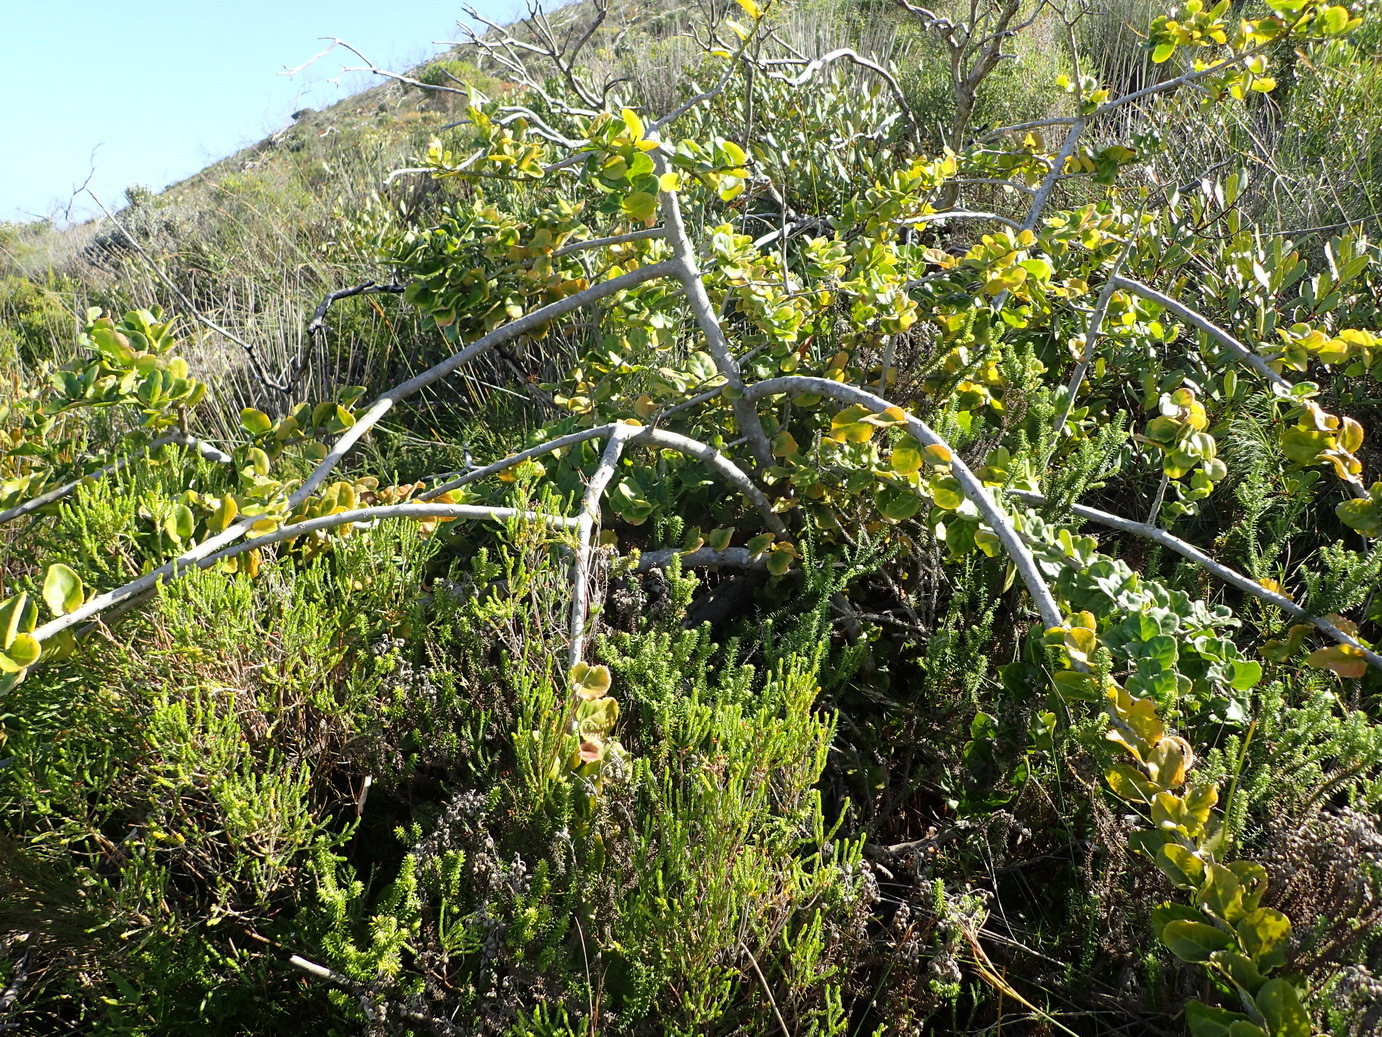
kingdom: Plantae
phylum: Tracheophyta
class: Magnoliopsida
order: Celastrales
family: Celastraceae
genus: Mystroxylon
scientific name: Mystroxylon aethiopicum
